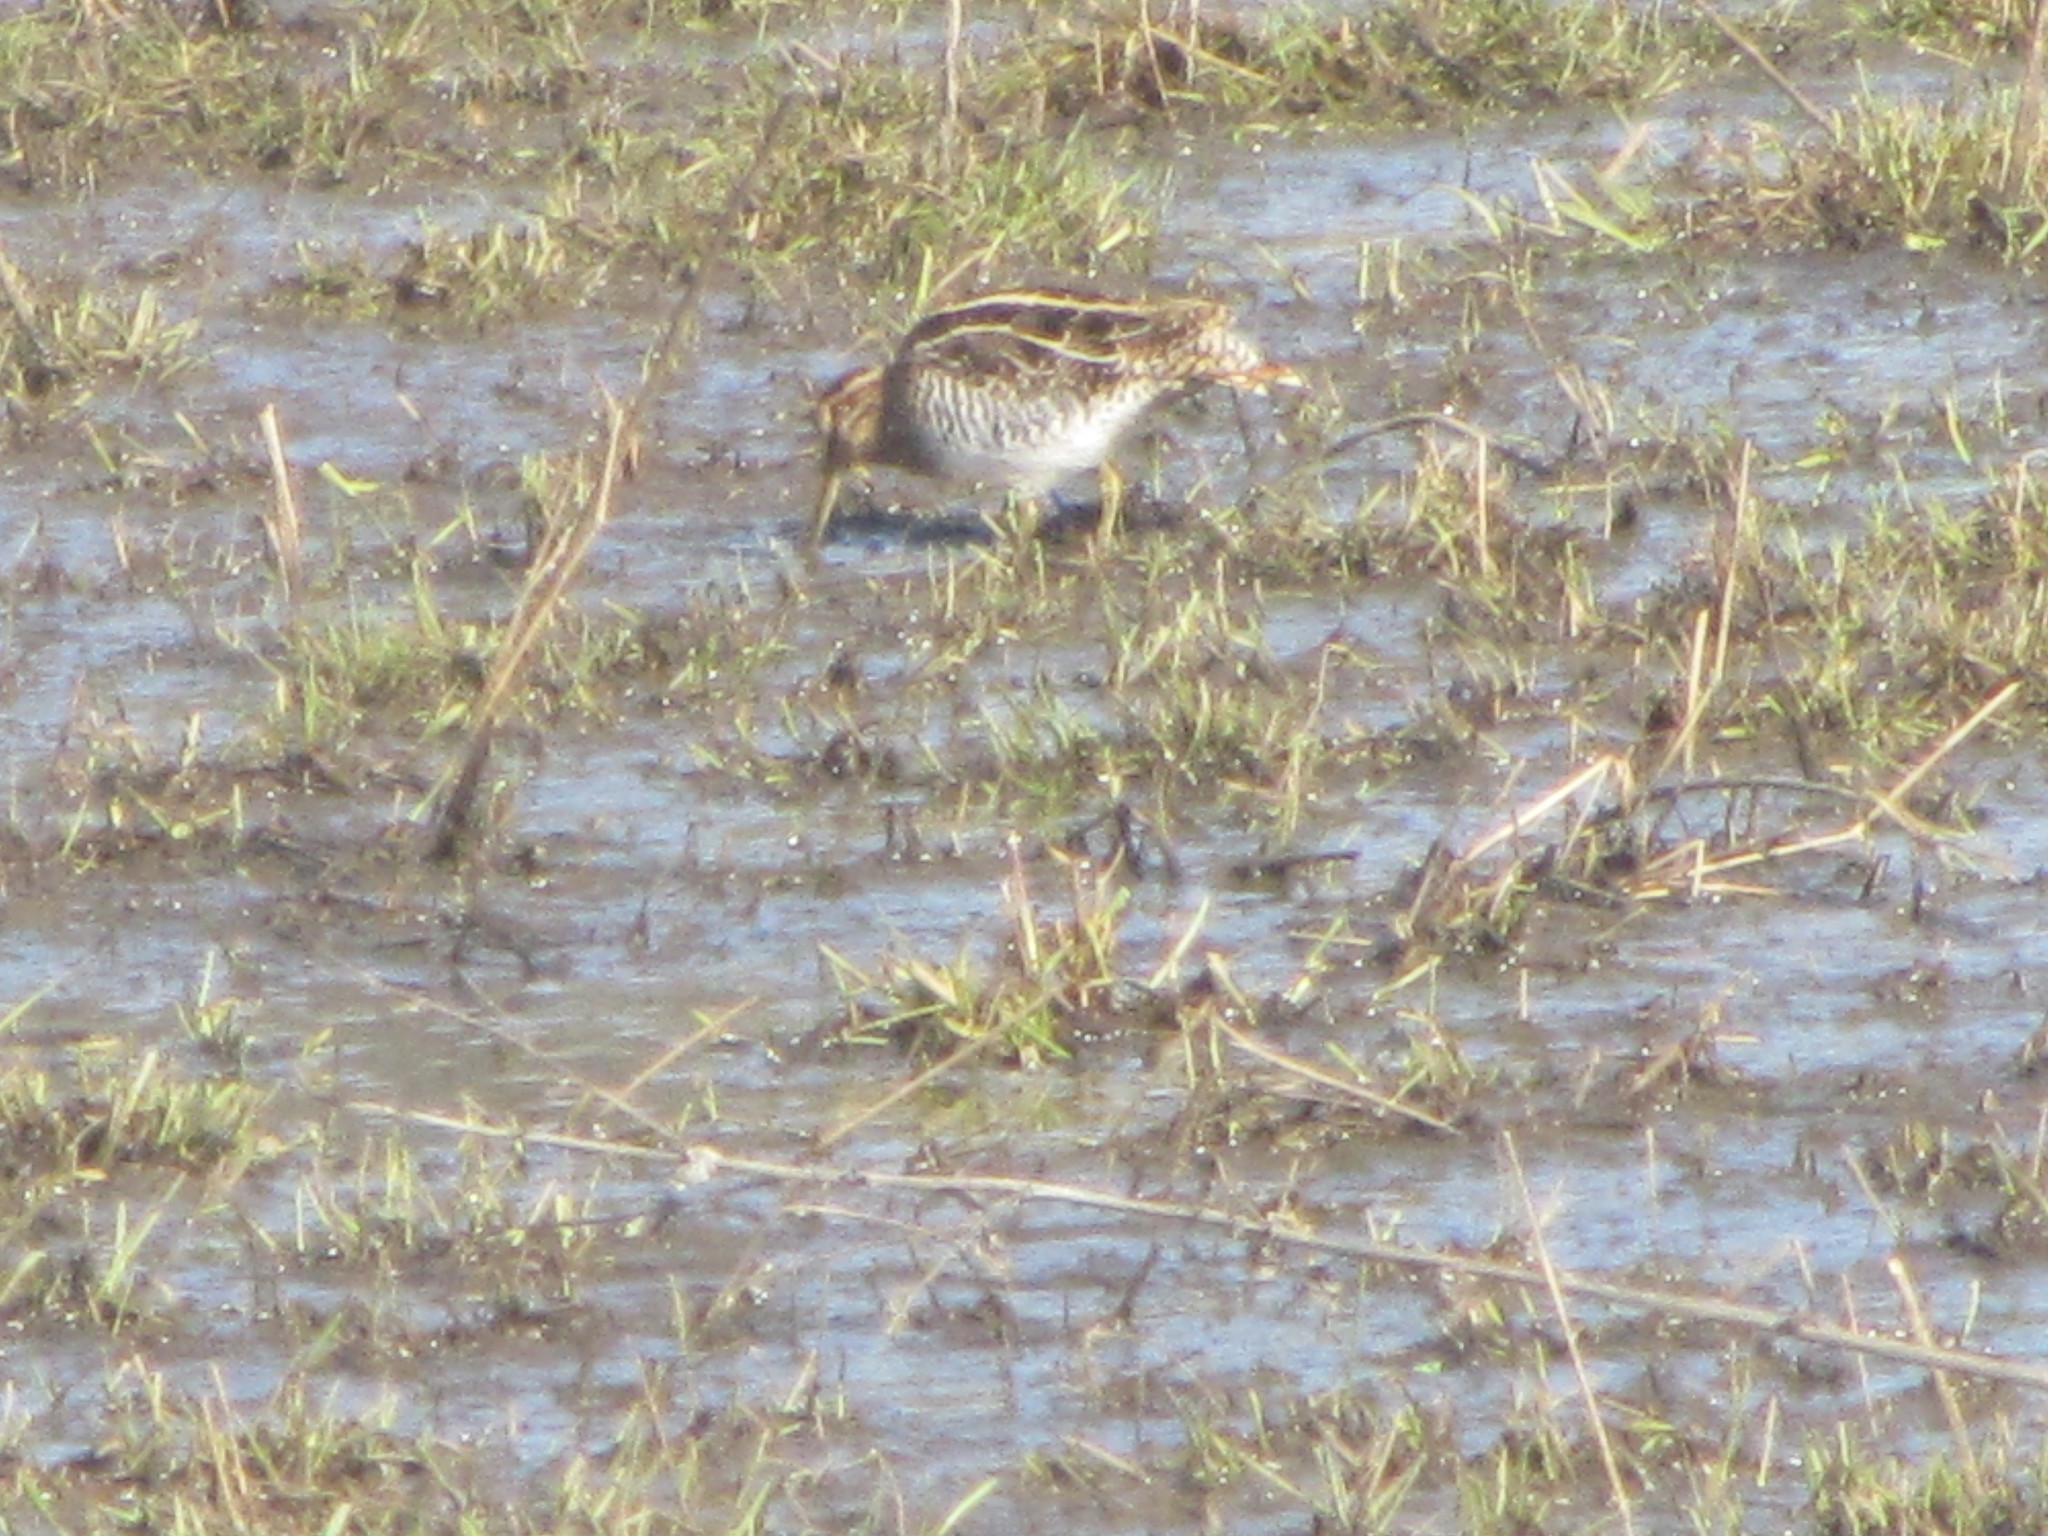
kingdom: Animalia
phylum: Chordata
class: Aves
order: Charadriiformes
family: Scolopacidae
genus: Gallinago
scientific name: Gallinago delicata
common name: Wilson's snipe
